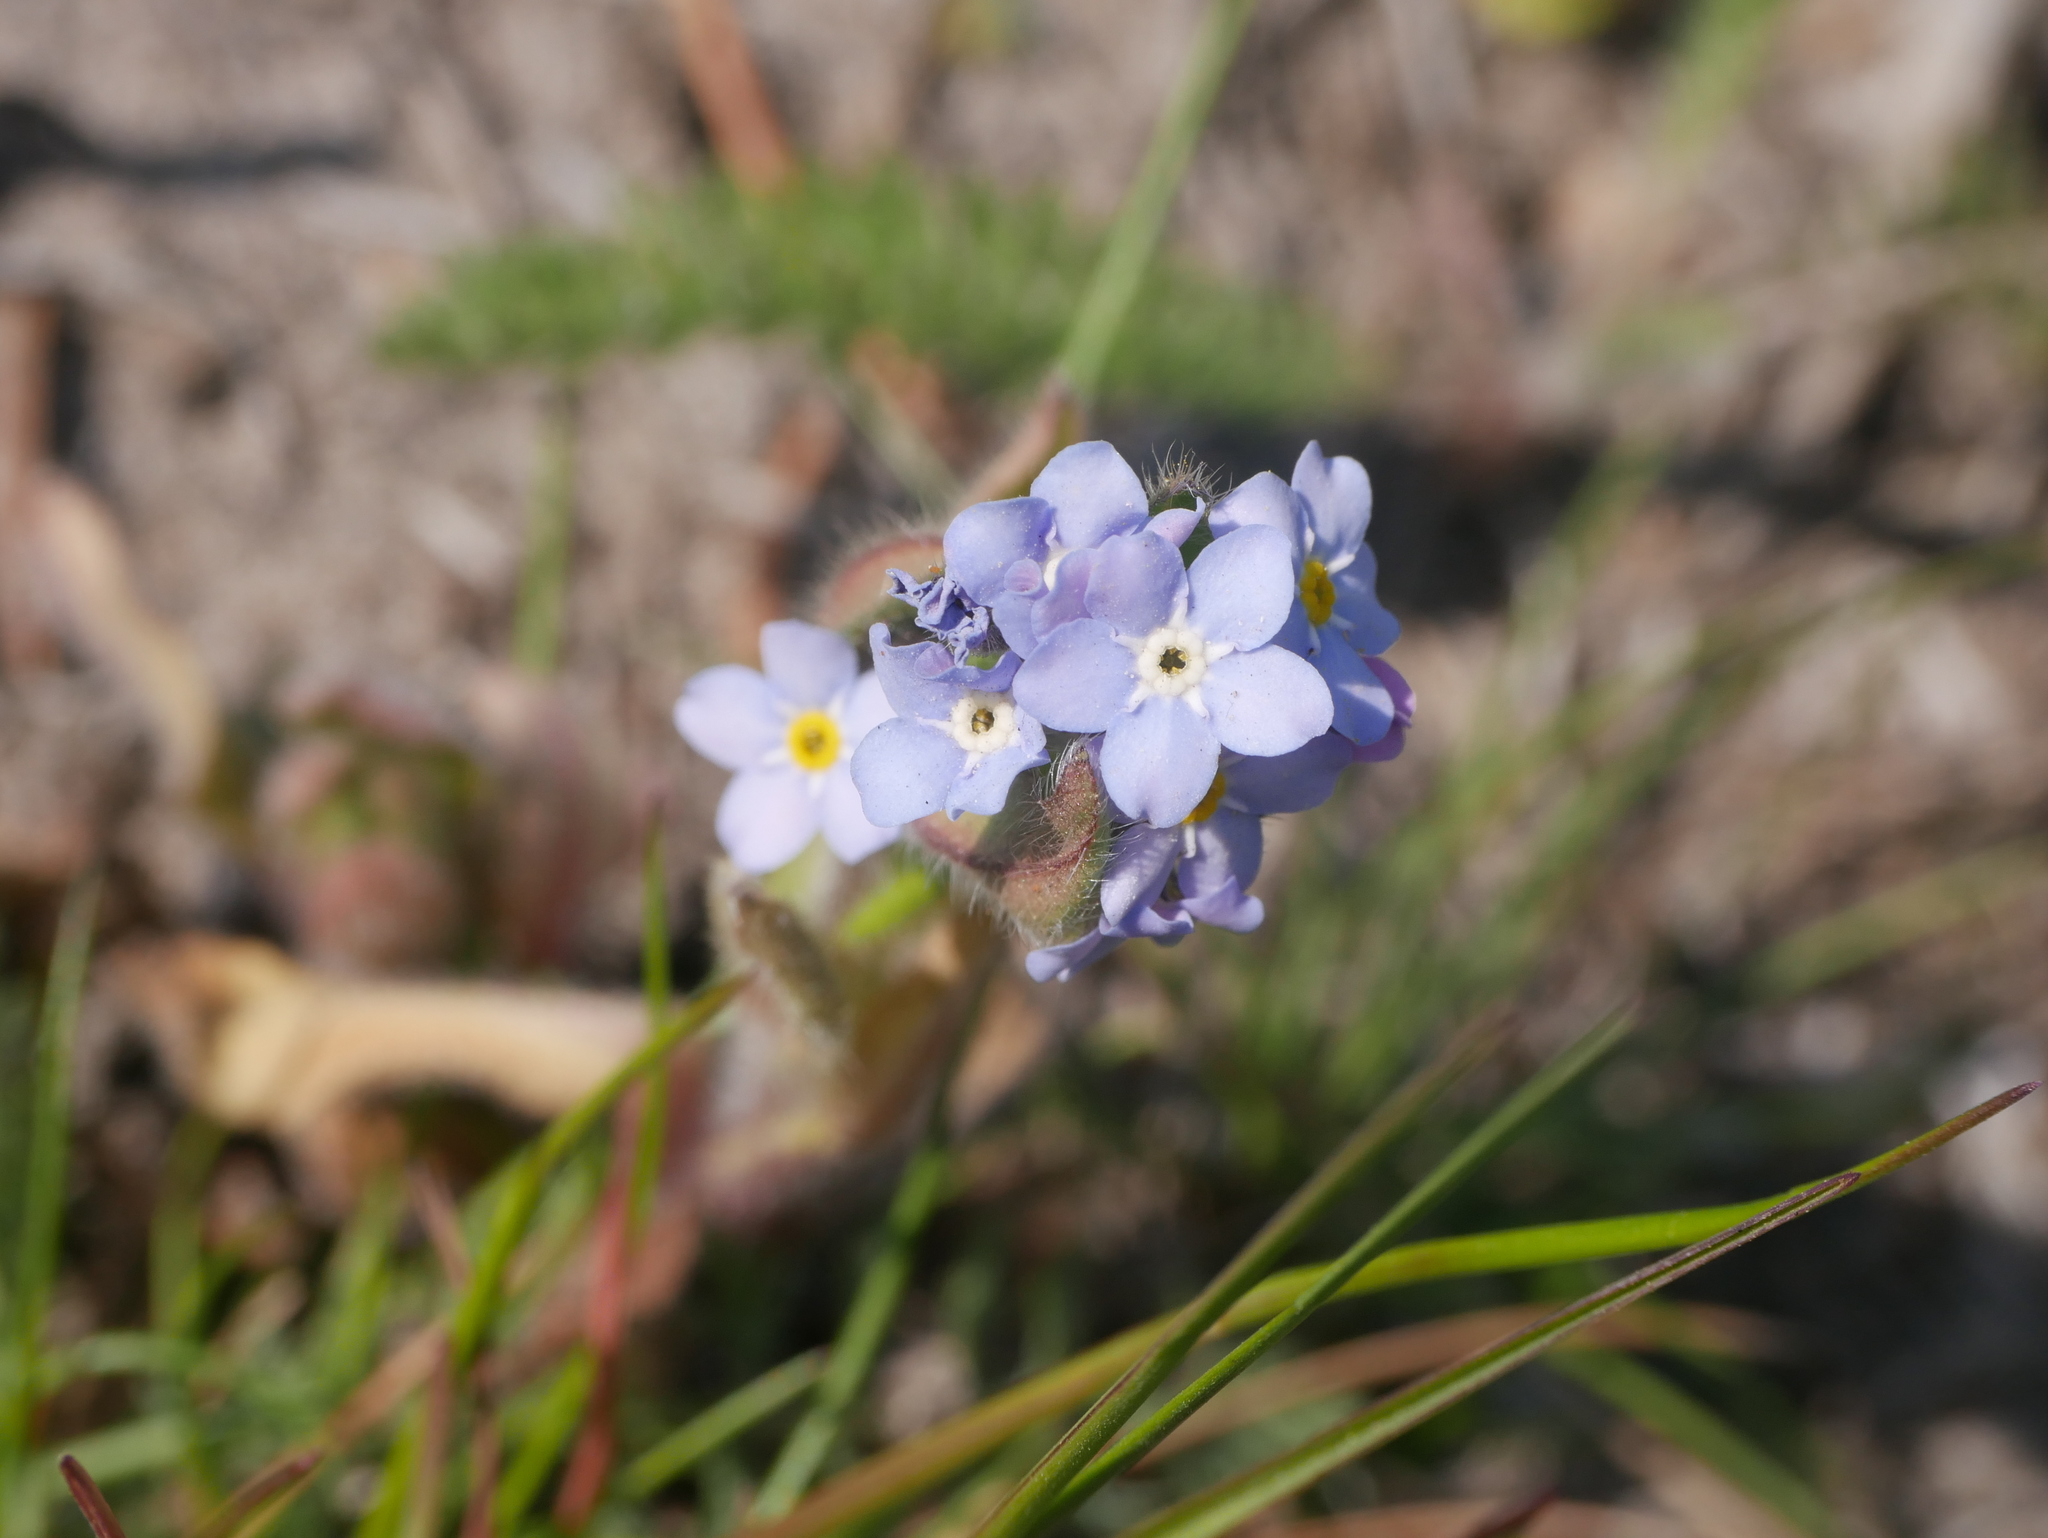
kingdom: Plantae
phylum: Tracheophyta
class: Magnoliopsida
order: Boraginales
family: Boraginaceae
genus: Myosotis
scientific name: Myosotis sylvatica
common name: Wood forget-me-not
